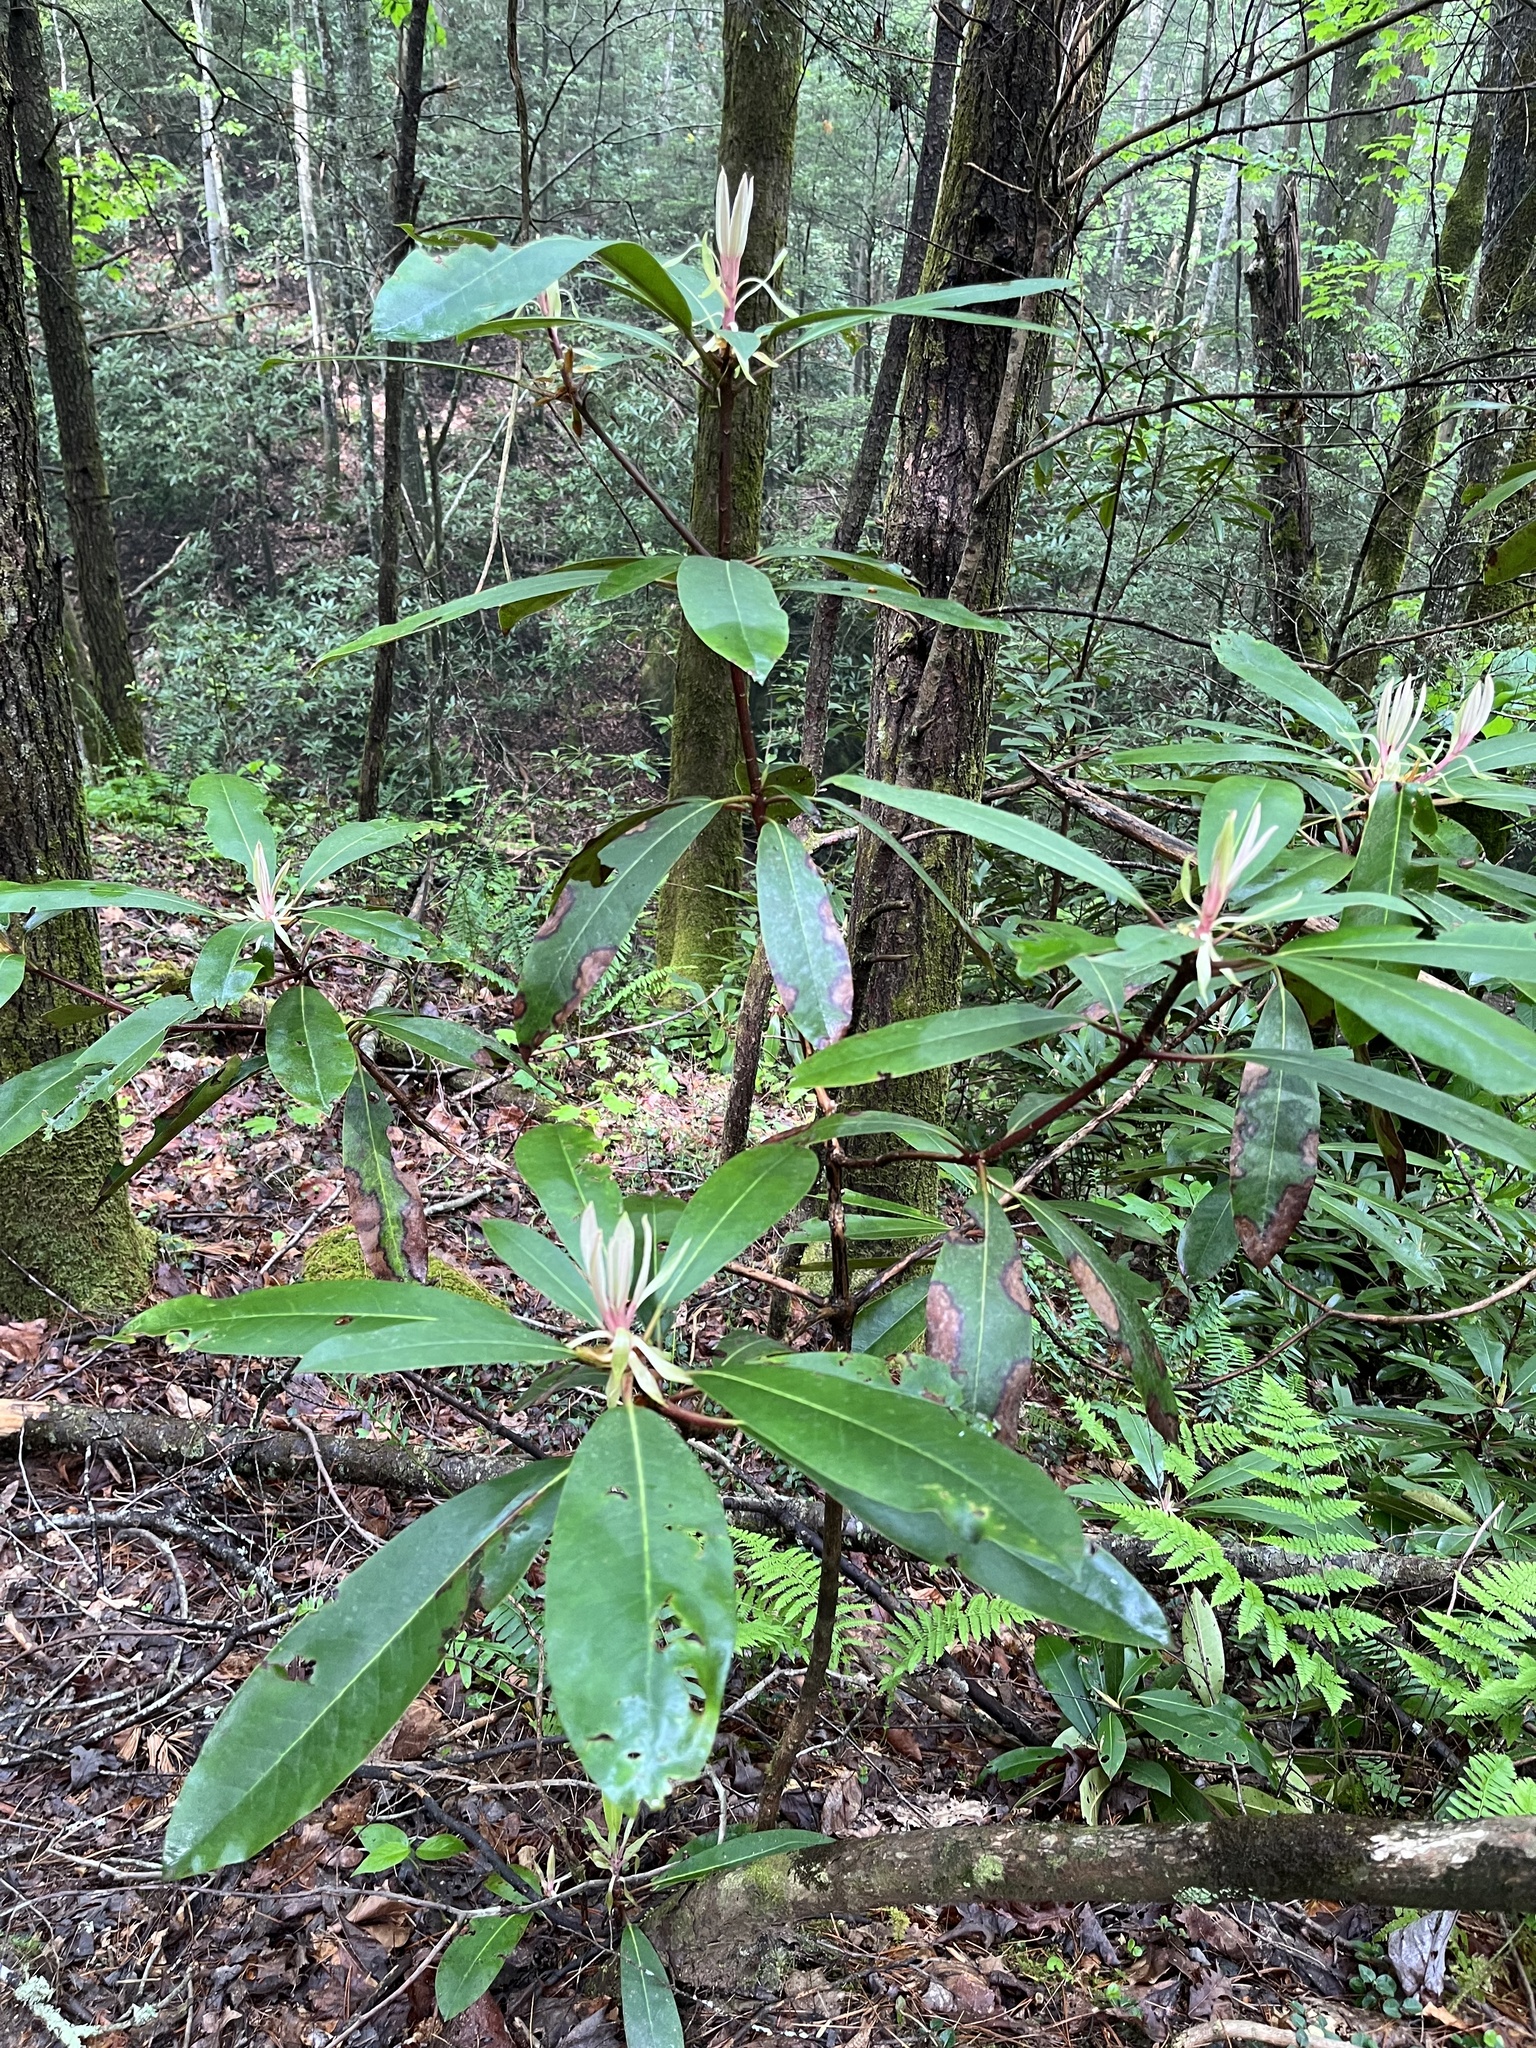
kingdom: Plantae
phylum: Tracheophyta
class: Magnoliopsida
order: Ericales
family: Ericaceae
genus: Rhododendron
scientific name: Rhododendron maximum
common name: Great rhododendron
